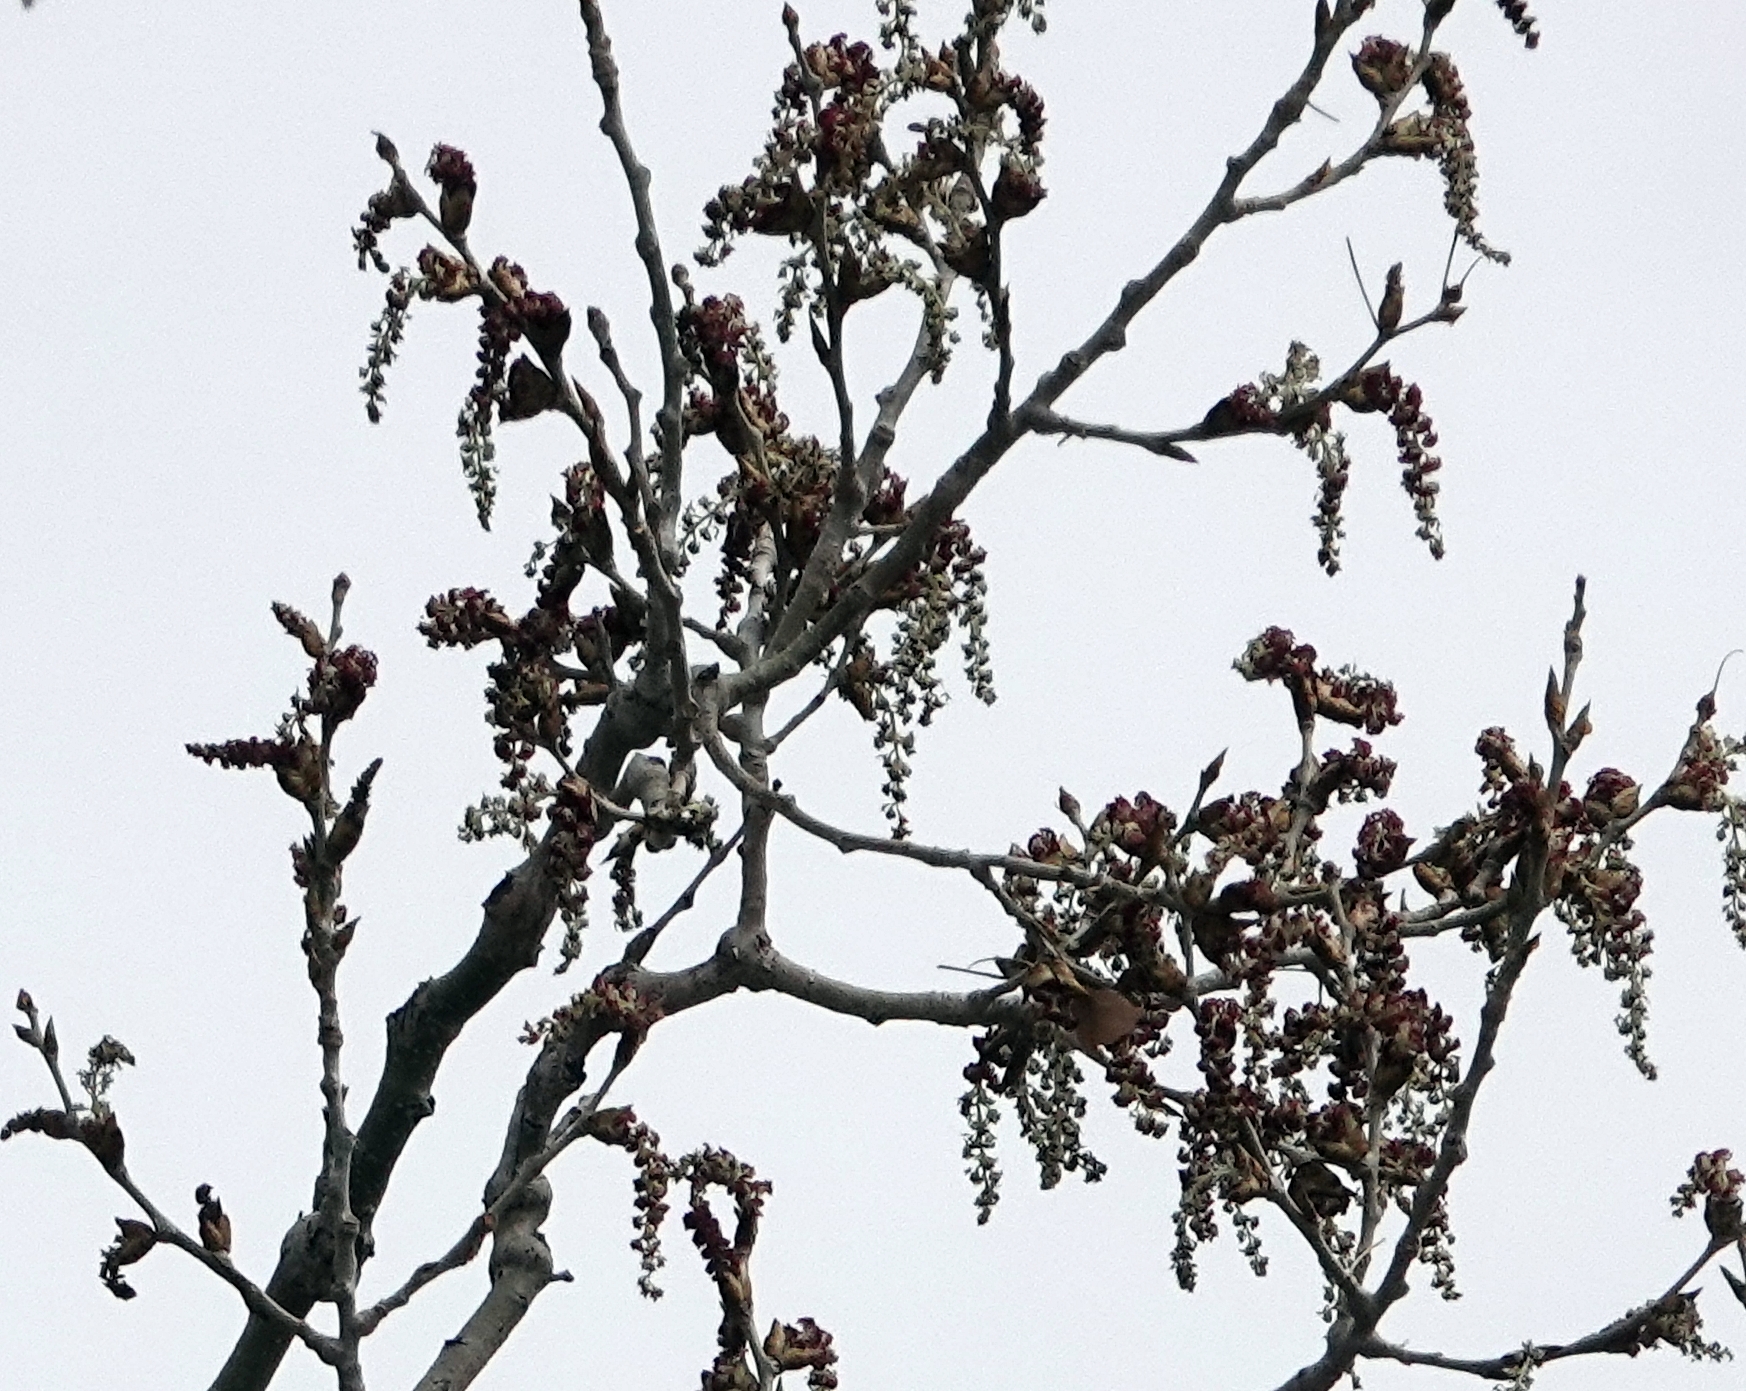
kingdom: Plantae
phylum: Tracheophyta
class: Magnoliopsida
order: Malpighiales
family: Salicaceae
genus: Populus
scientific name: Populus deltoides
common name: Eastern cottonwood
